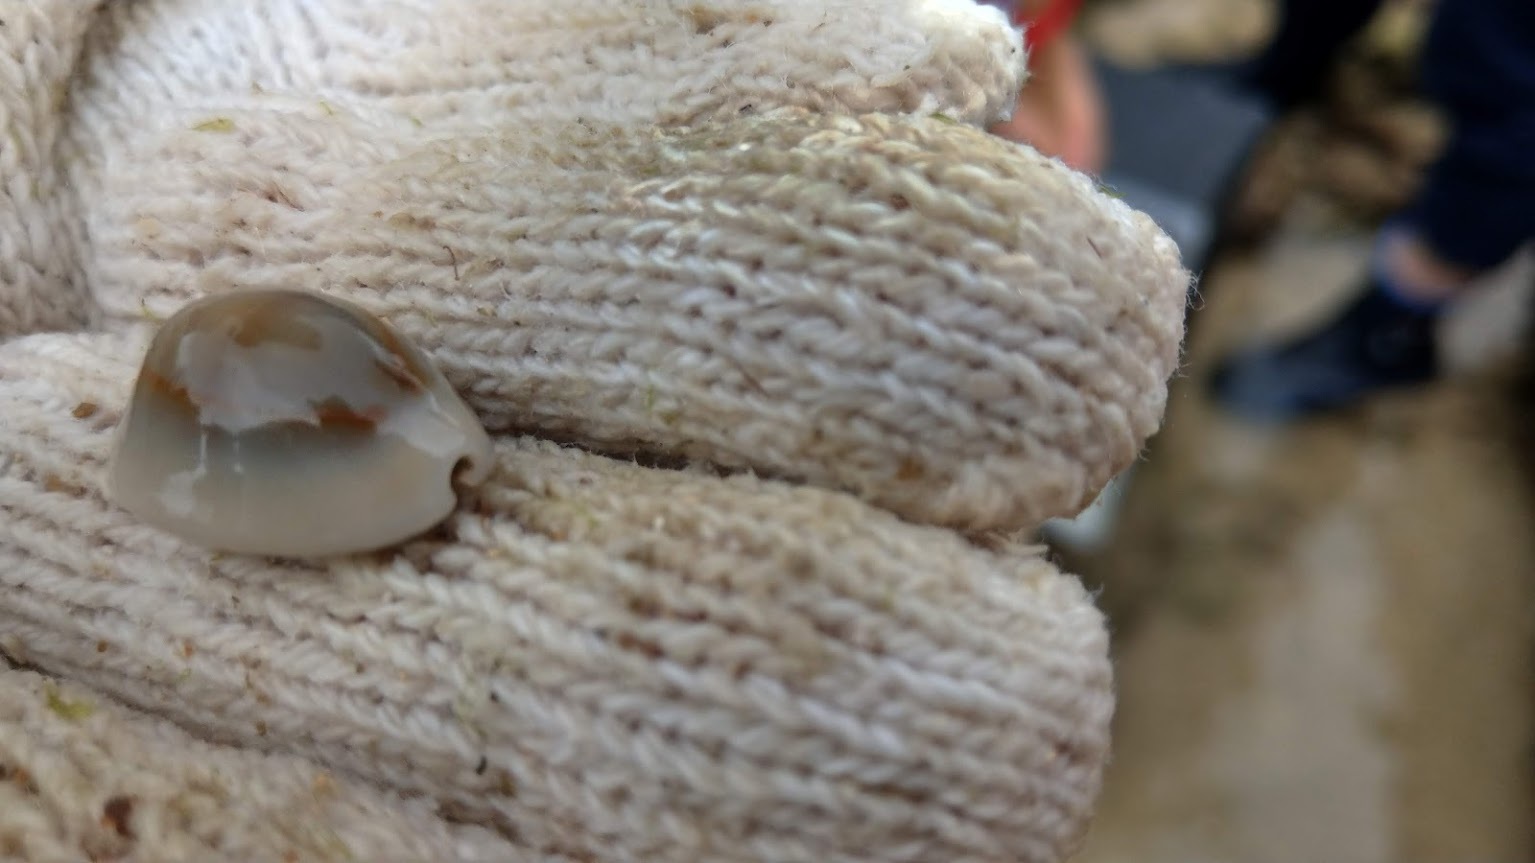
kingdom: Animalia
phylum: Mollusca
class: Gastropoda
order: Littorinimorpha
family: Cypraeidae
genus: Monetaria
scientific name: Monetaria annulus
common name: Ring cowrie
